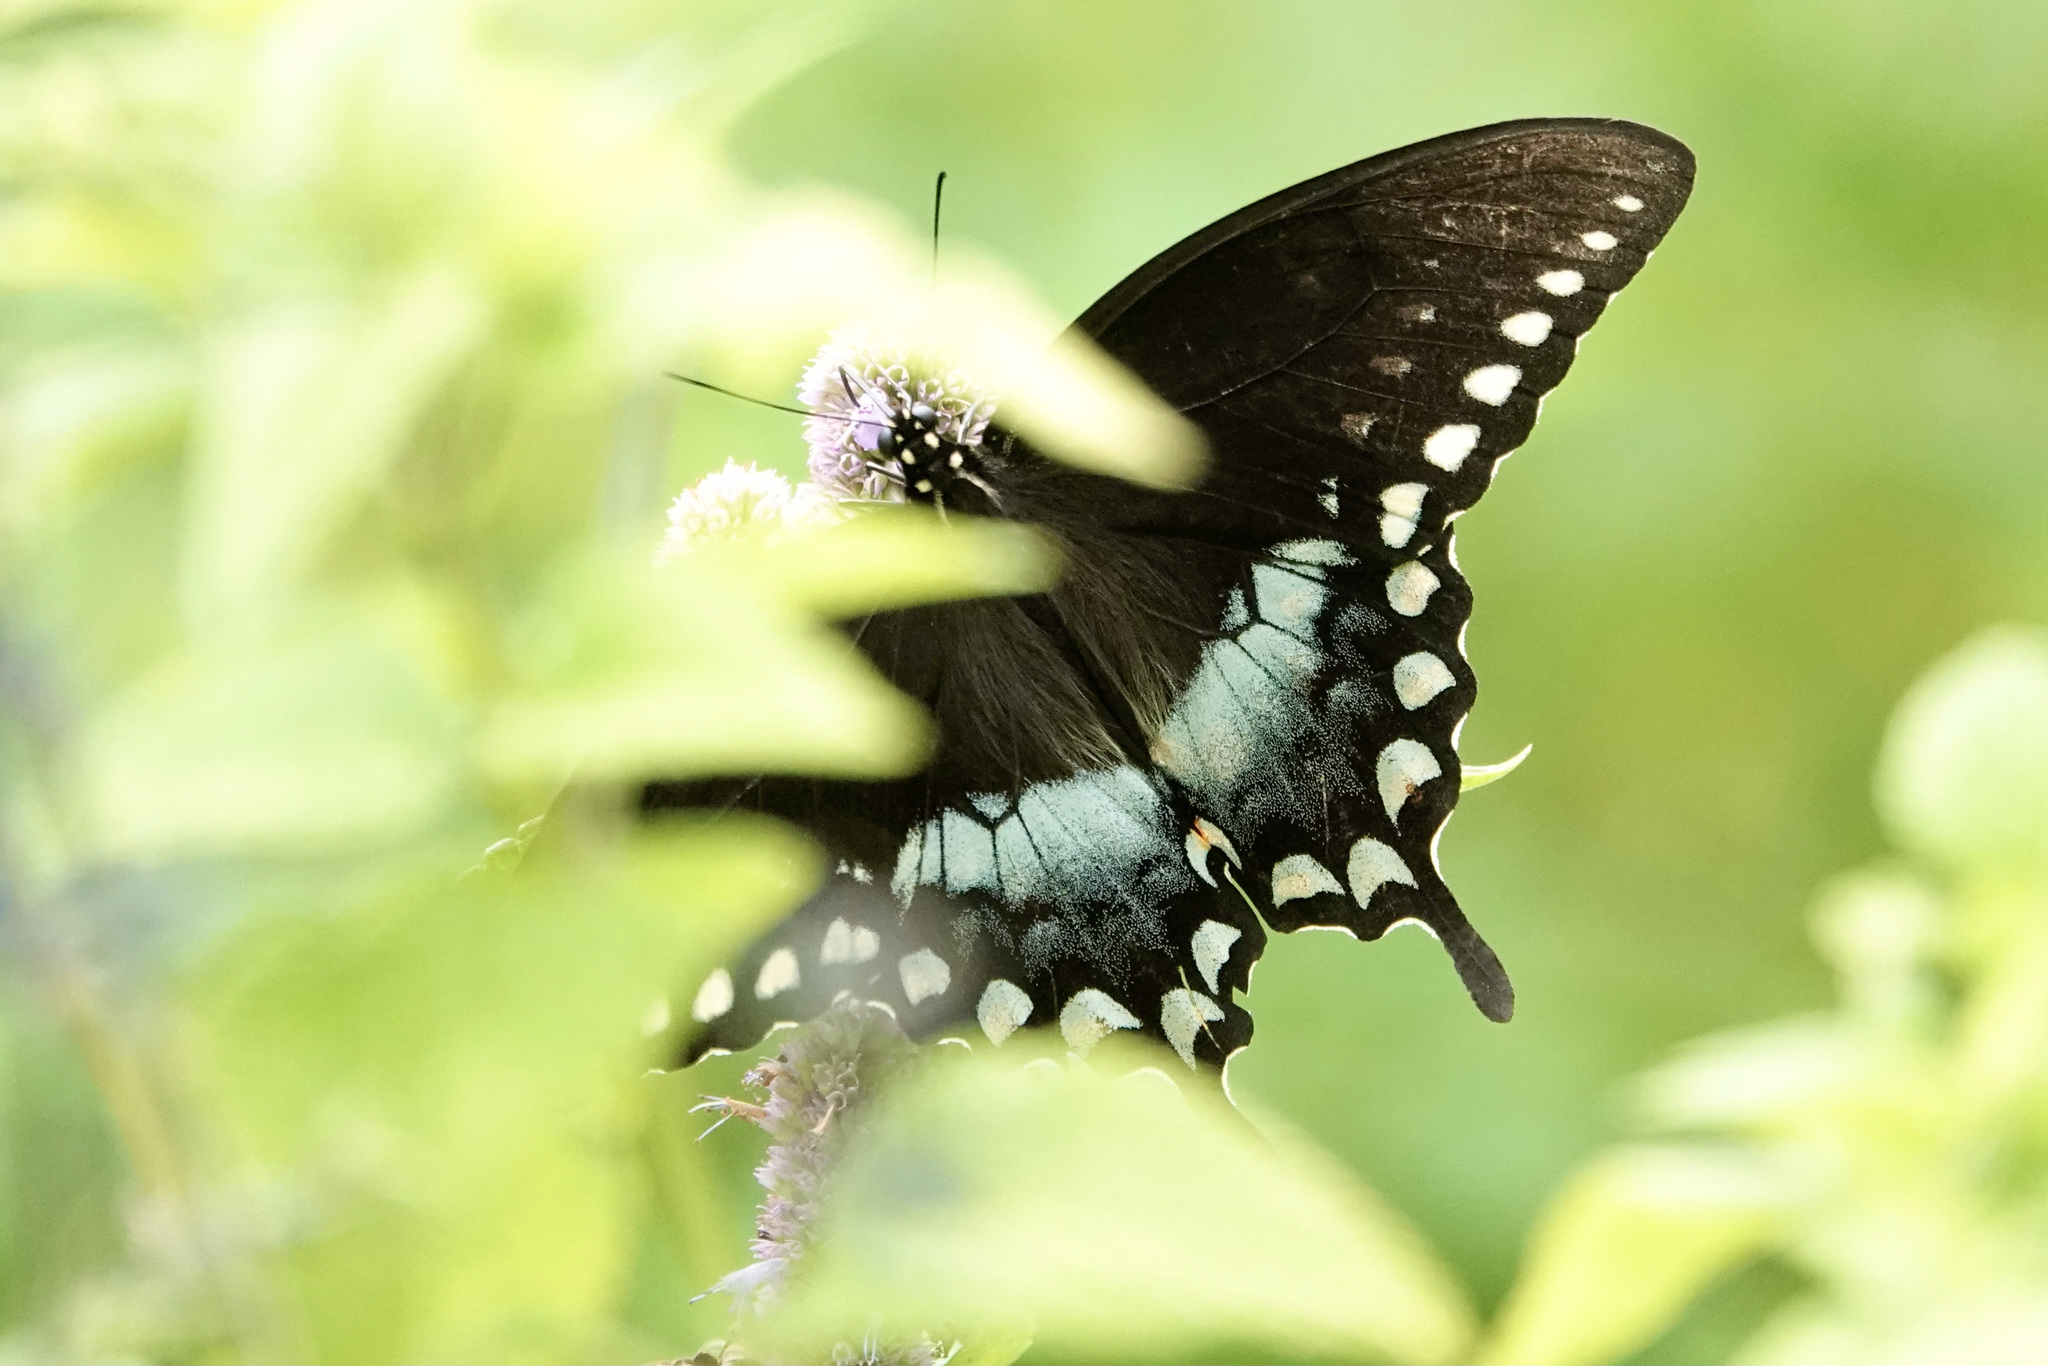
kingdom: Animalia
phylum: Arthropoda
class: Insecta
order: Lepidoptera
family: Papilionidae
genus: Papilio
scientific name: Papilio troilus
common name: Spicebush swallowtail
